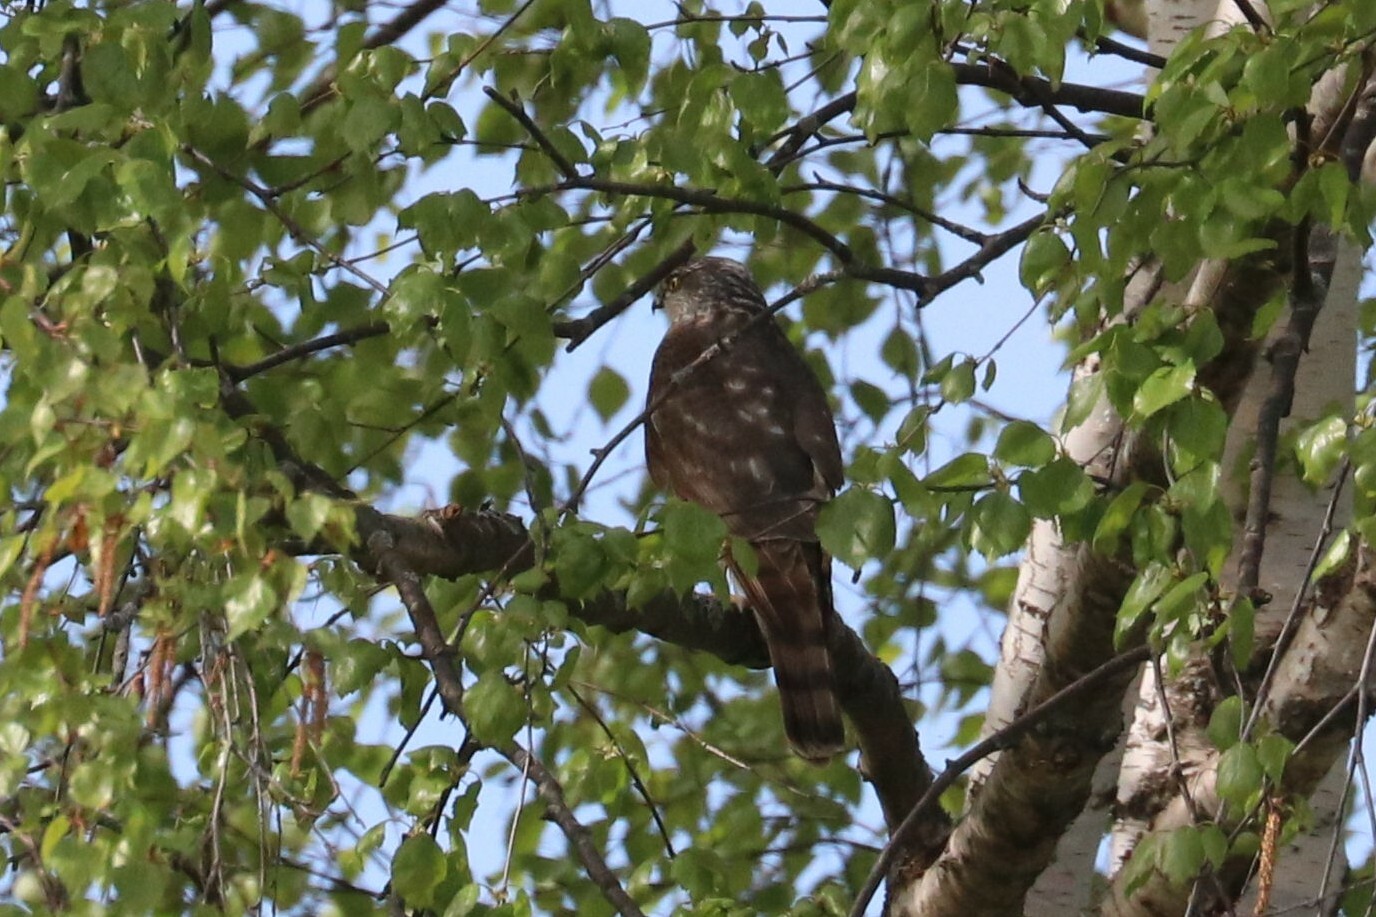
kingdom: Animalia
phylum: Chordata
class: Aves
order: Accipitriformes
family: Accipitridae
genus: Accipiter
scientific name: Accipiter nisus
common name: Eurasian sparrowhawk
